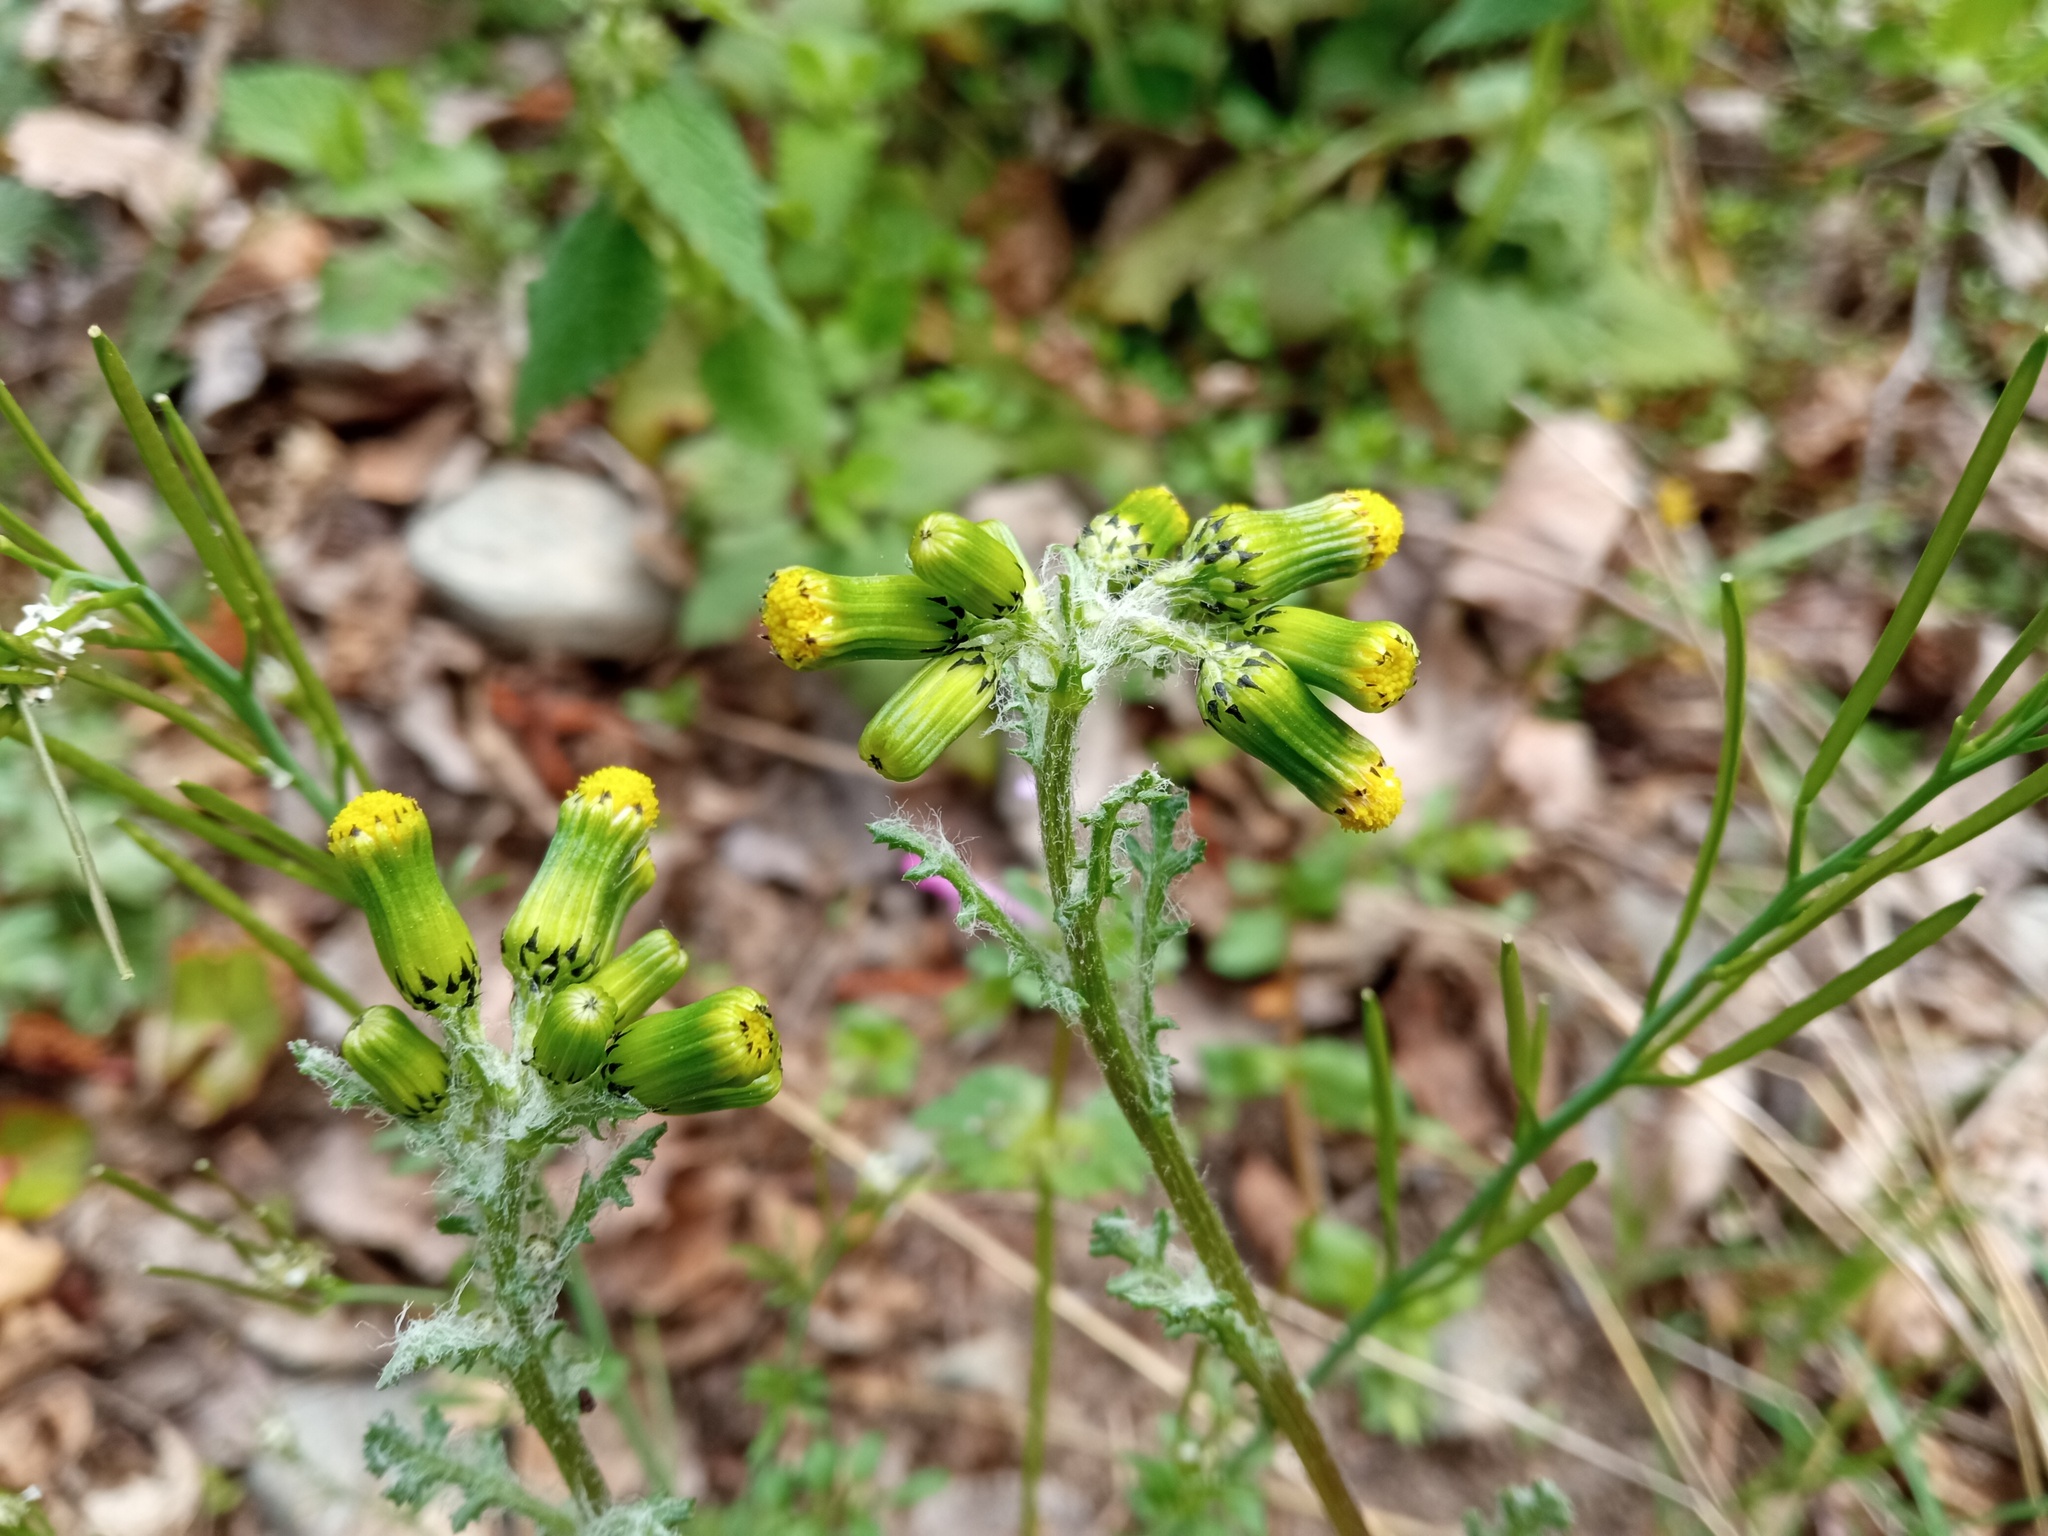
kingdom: Plantae
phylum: Tracheophyta
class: Magnoliopsida
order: Asterales
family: Asteraceae
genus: Senecio
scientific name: Senecio vulgaris
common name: Old-man-in-the-spring
